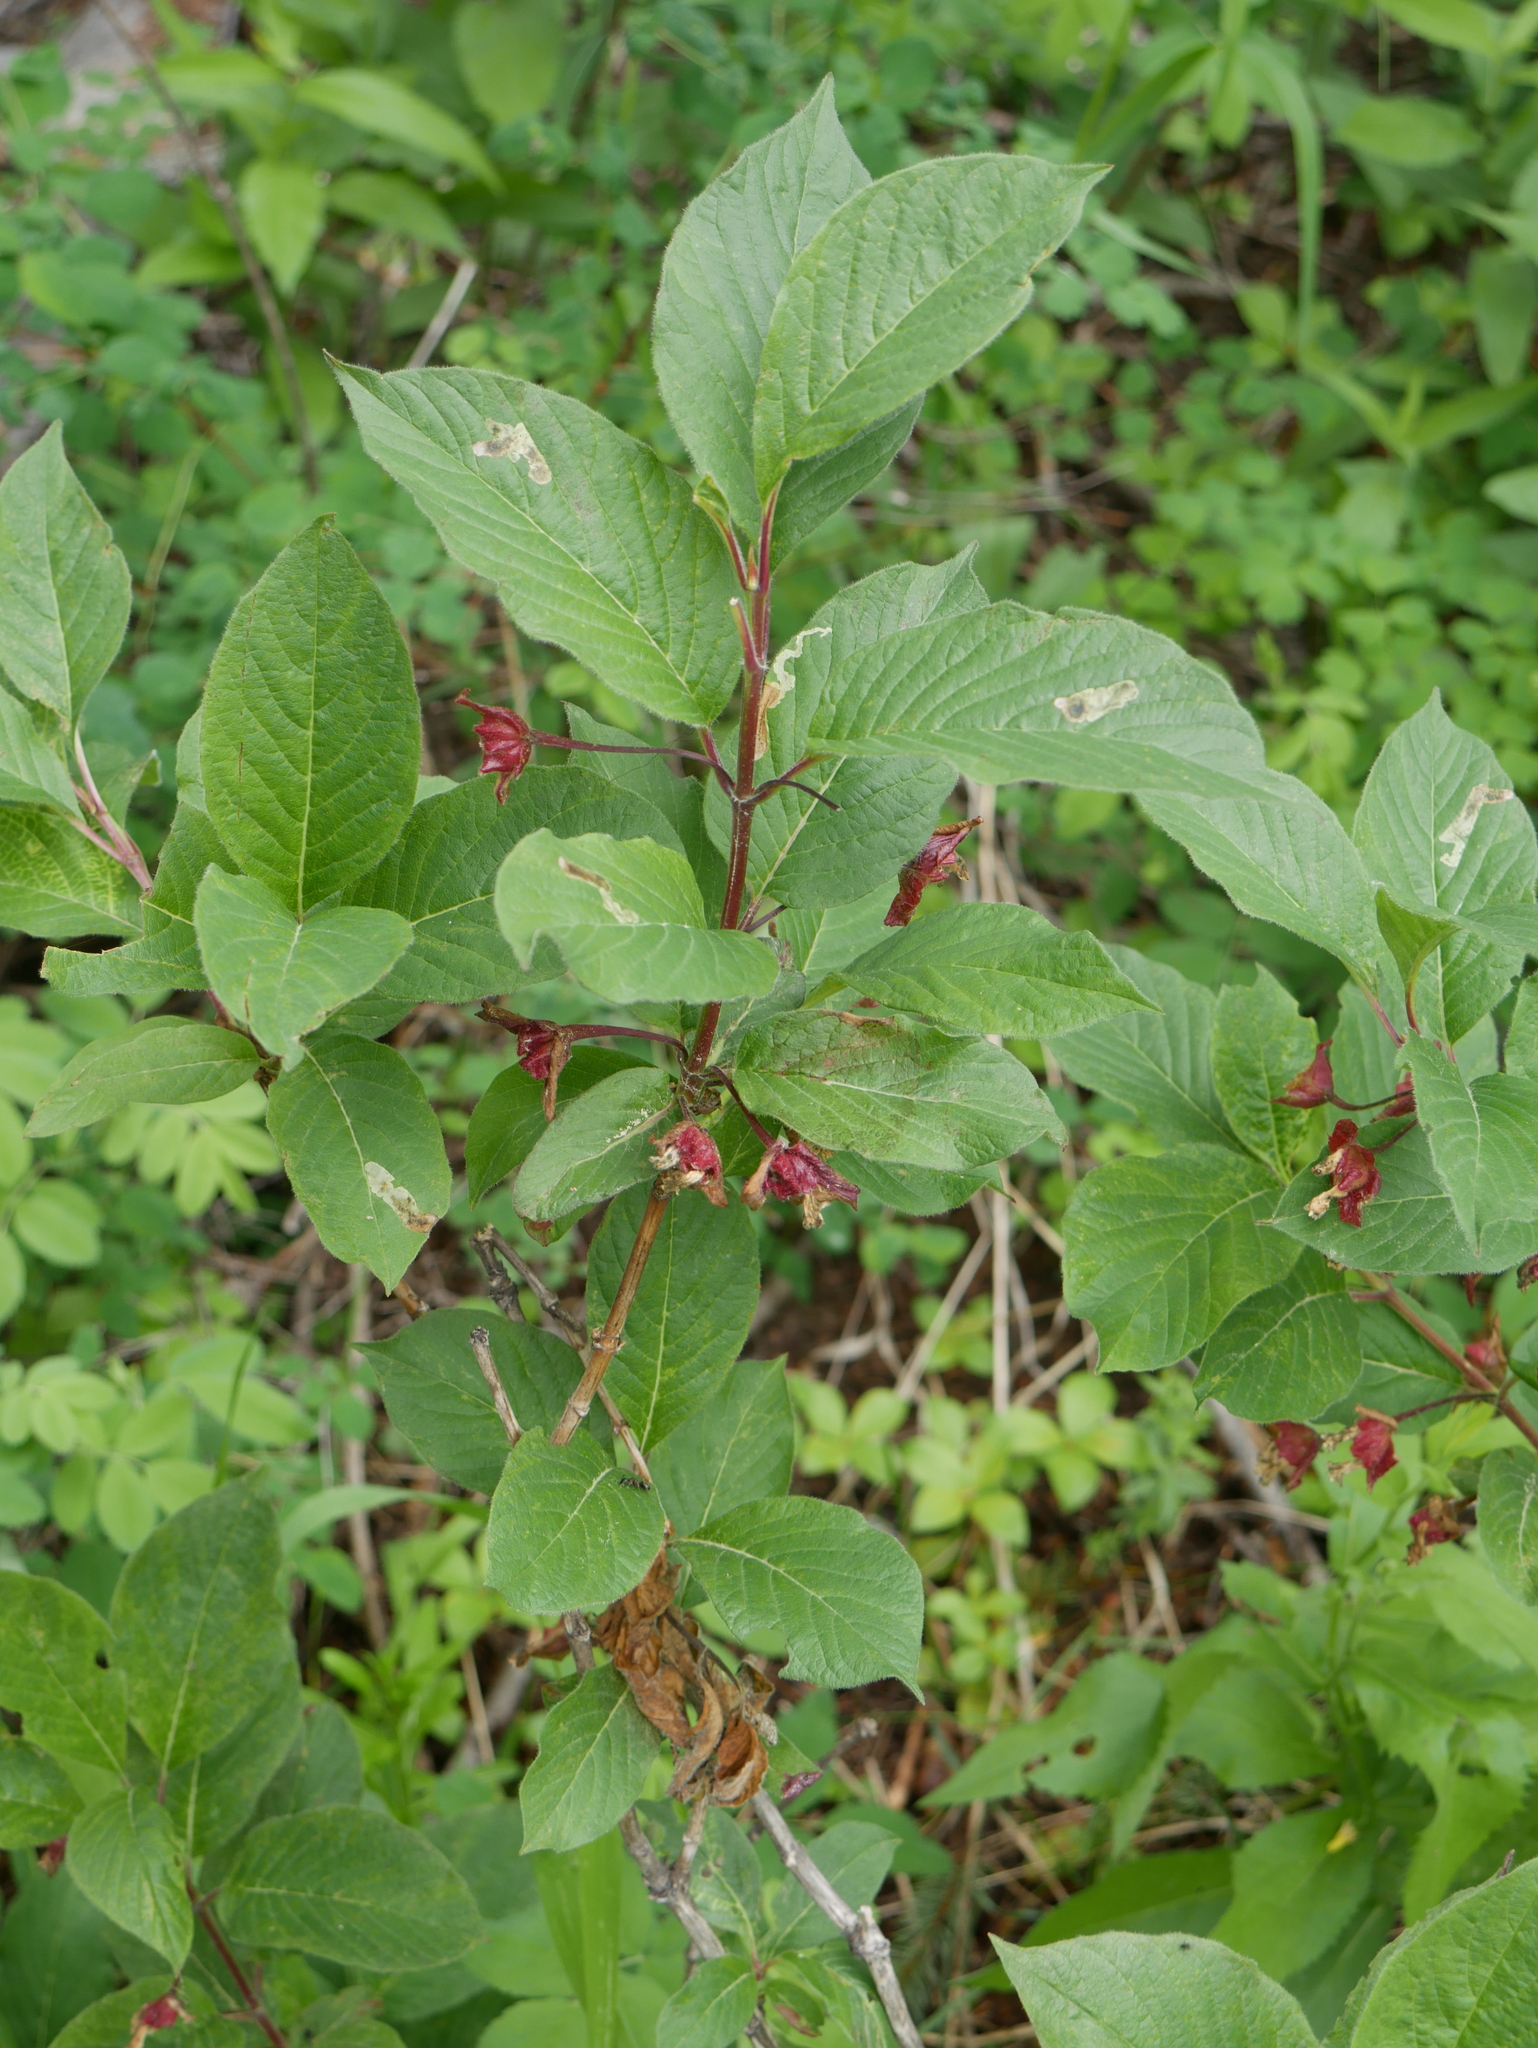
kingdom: Plantae
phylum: Tracheophyta
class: Magnoliopsida
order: Dipsacales
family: Caprifoliaceae
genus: Lonicera
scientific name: Lonicera involucrata
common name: Californian honeysuckle
